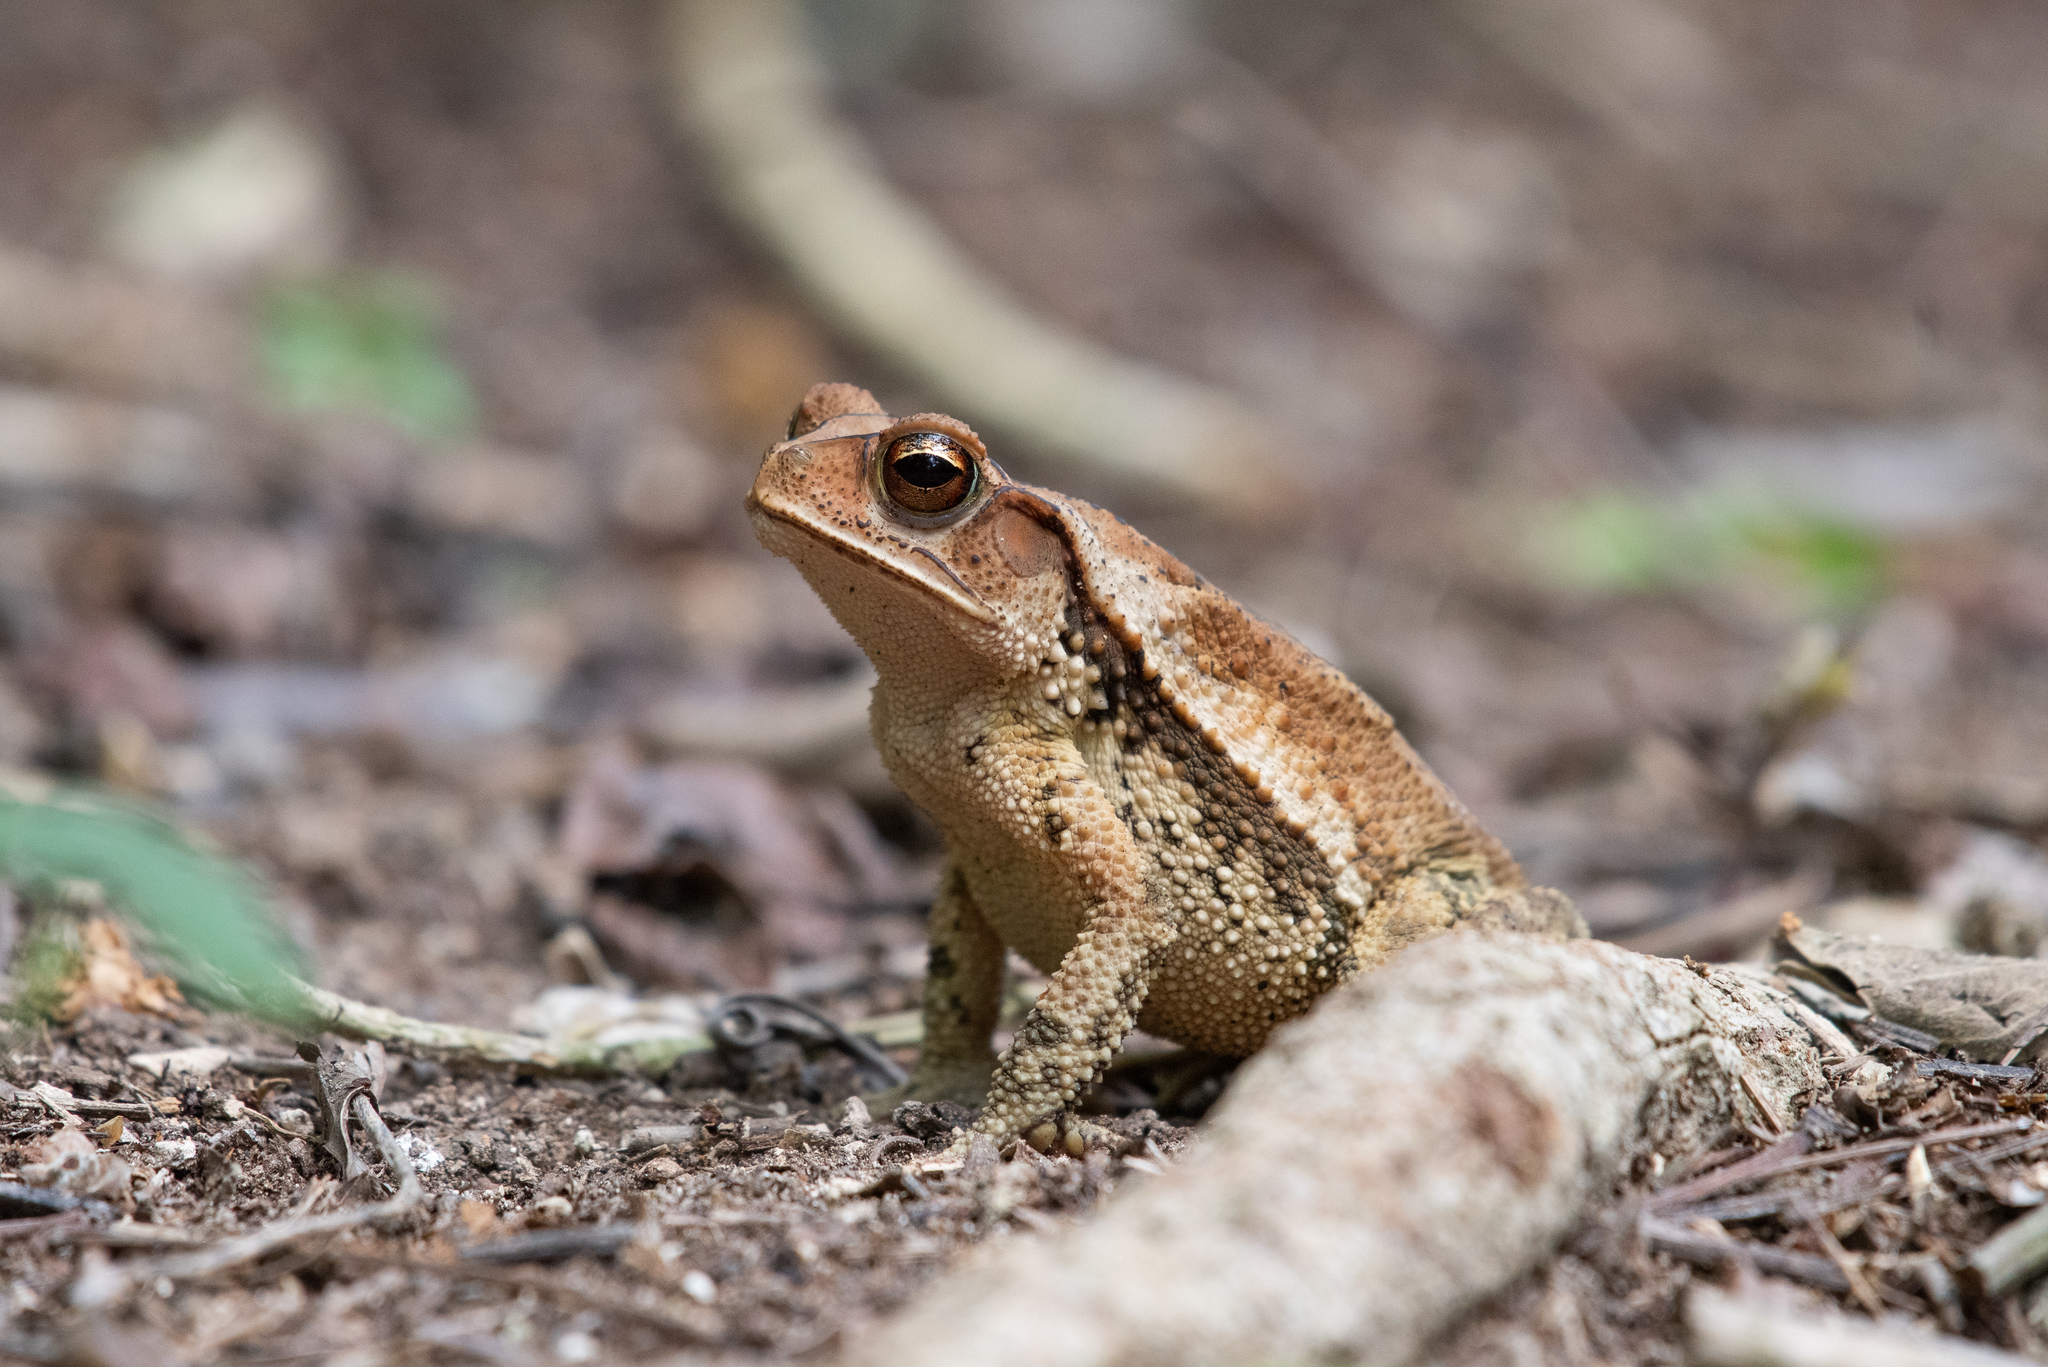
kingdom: Animalia
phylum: Chordata
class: Amphibia
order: Anura
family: Bufonidae
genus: Incilius
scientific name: Incilius valliceps
